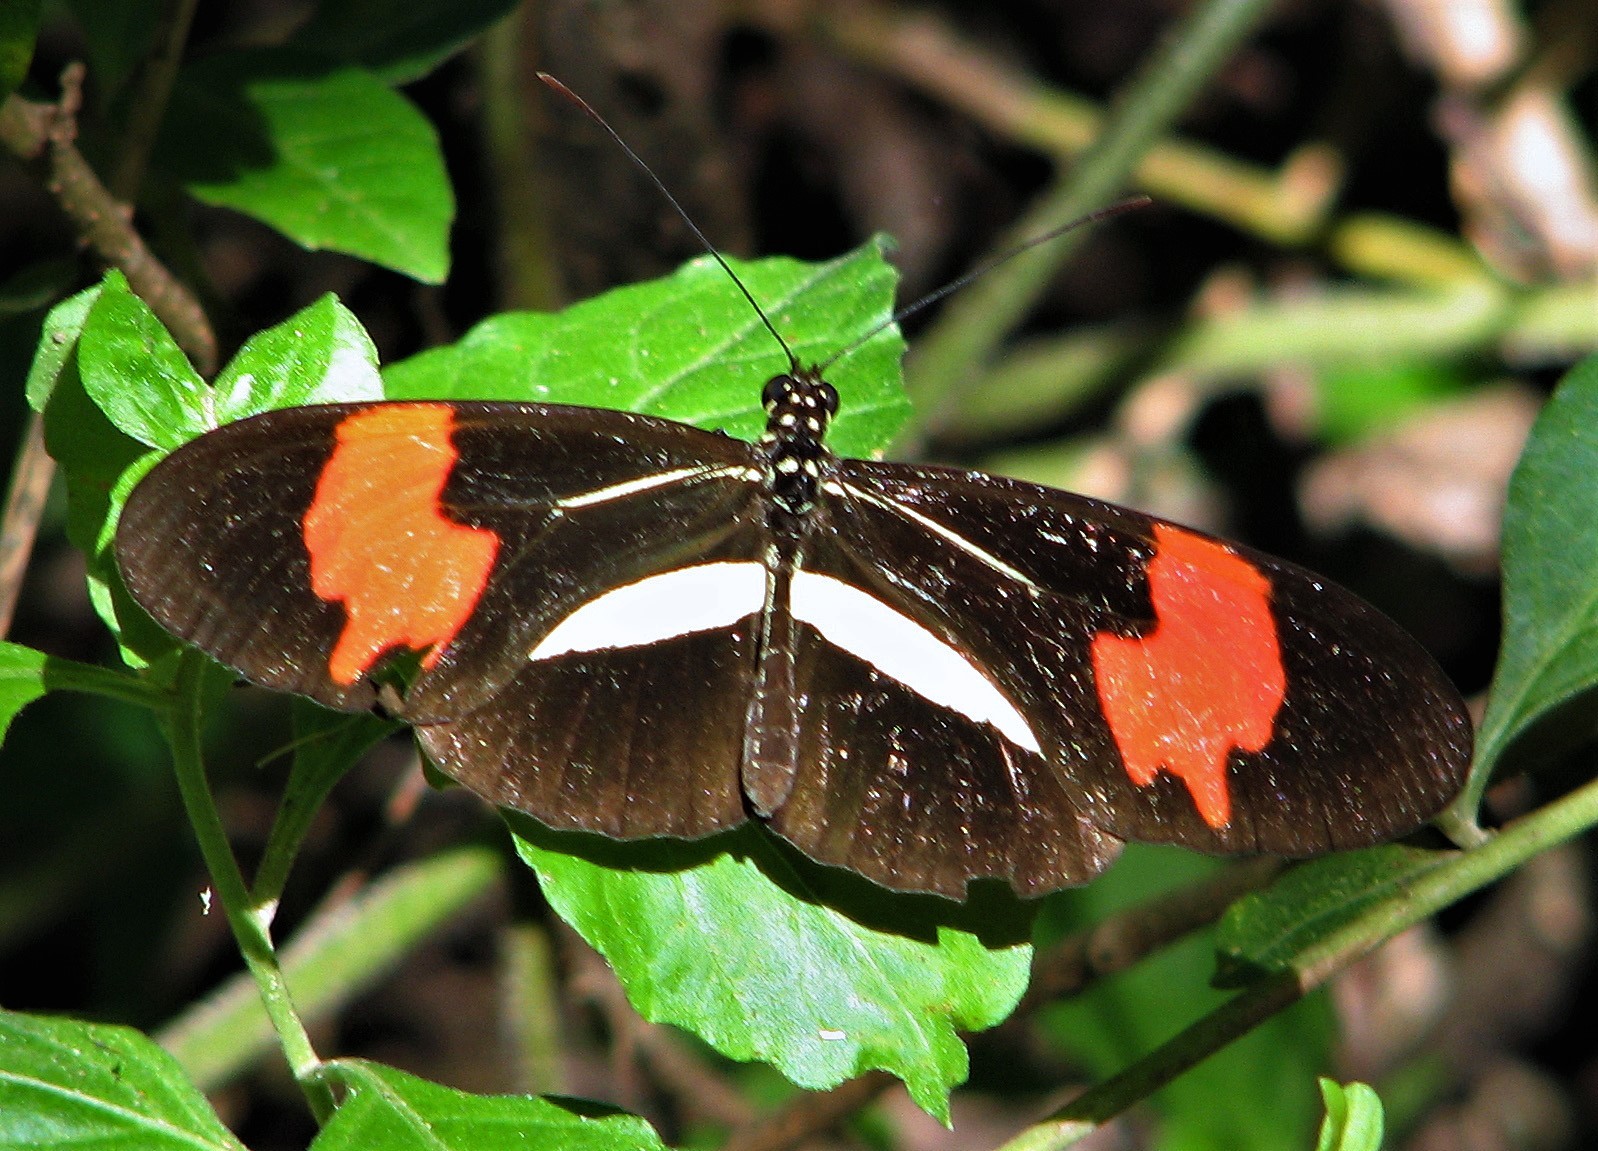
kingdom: Animalia
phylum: Arthropoda
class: Insecta
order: Lepidoptera
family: Nymphalidae
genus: Heliconius
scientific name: Heliconius erato
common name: Common patch longwing
